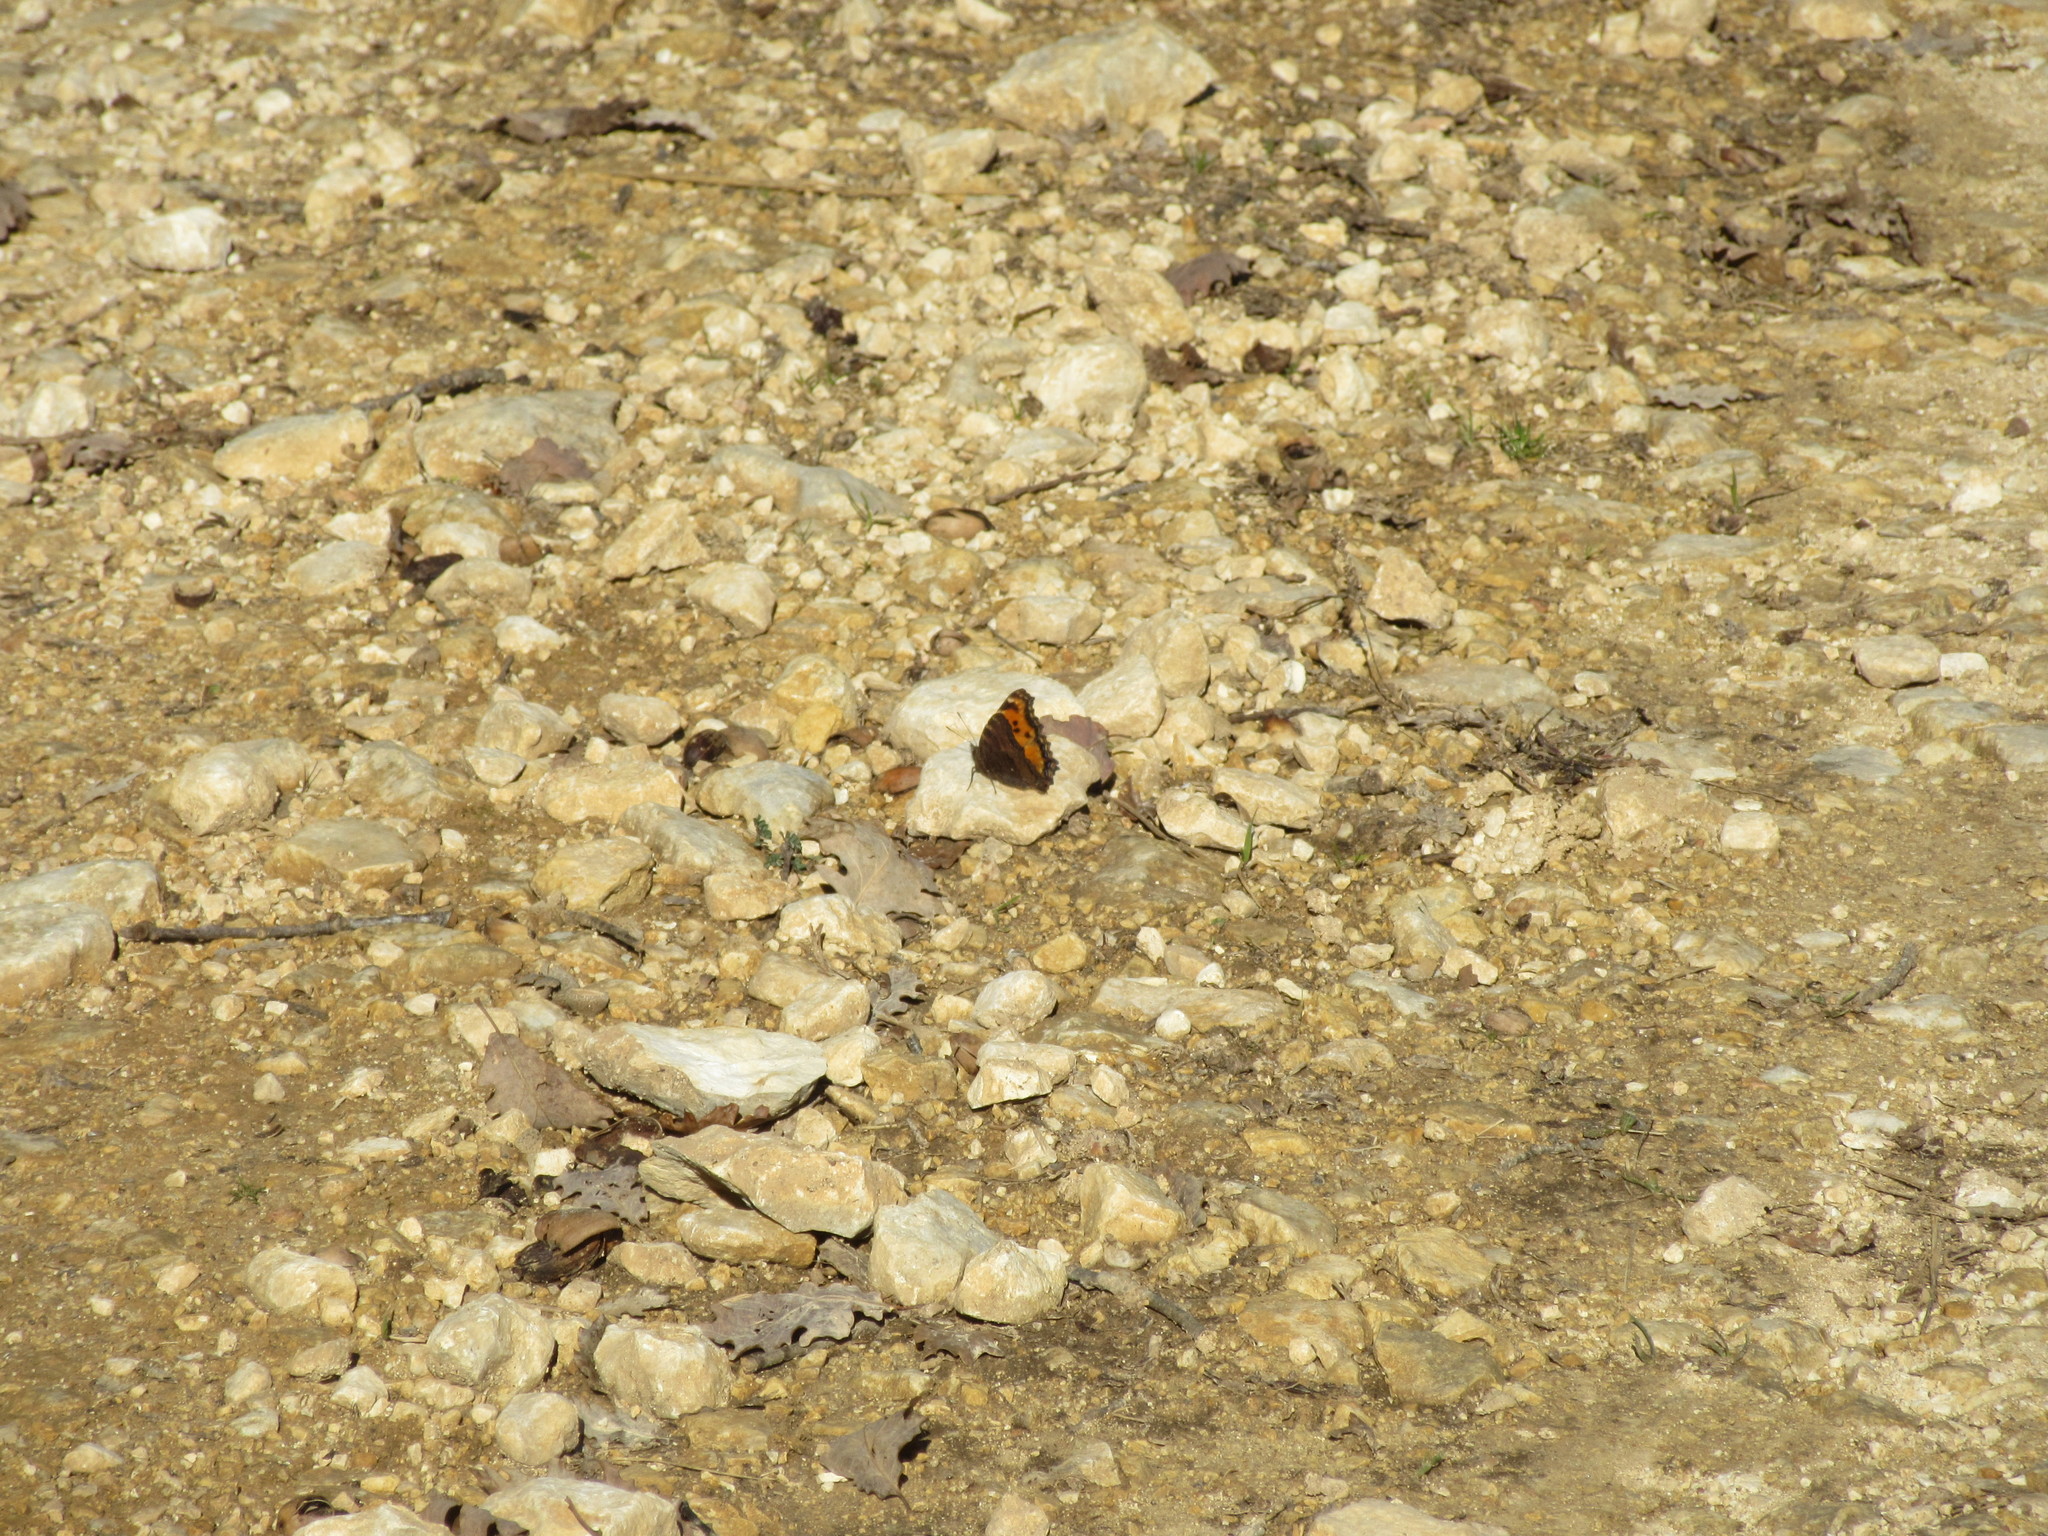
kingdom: Animalia
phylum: Arthropoda
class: Insecta
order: Lepidoptera
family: Nymphalidae
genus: Nymphalis
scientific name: Nymphalis polychloros
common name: Large tortoiseshell
